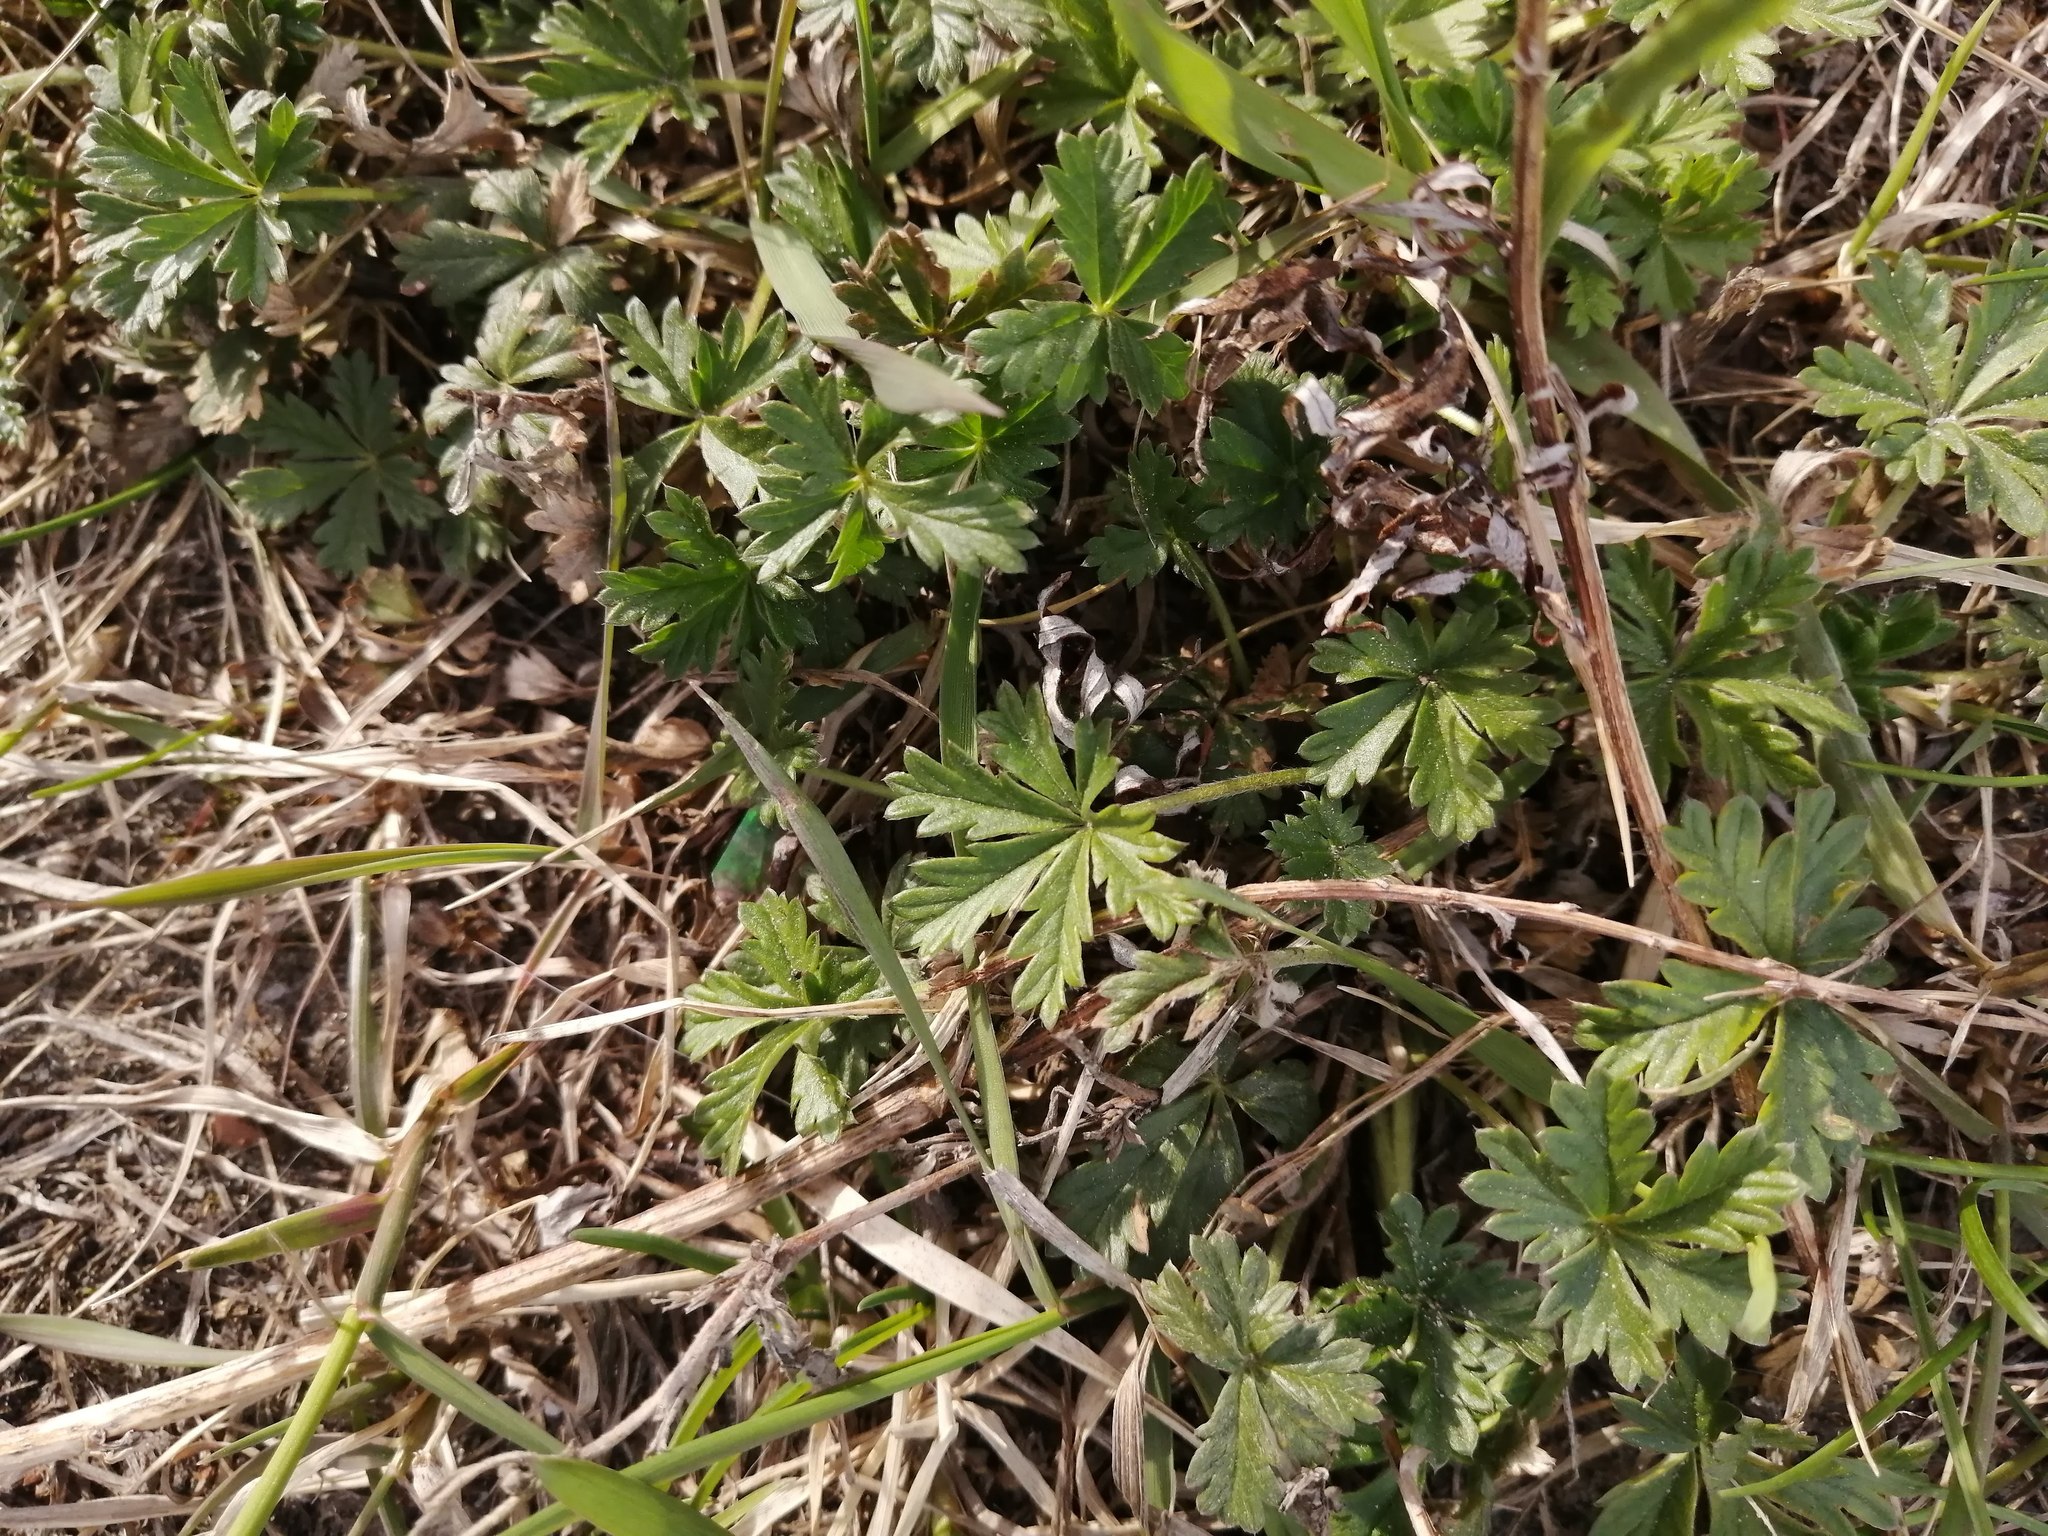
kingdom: Plantae
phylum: Tracheophyta
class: Magnoliopsida
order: Rosales
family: Rosaceae
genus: Potentilla
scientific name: Potentilla argentea
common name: Hoary cinquefoil
